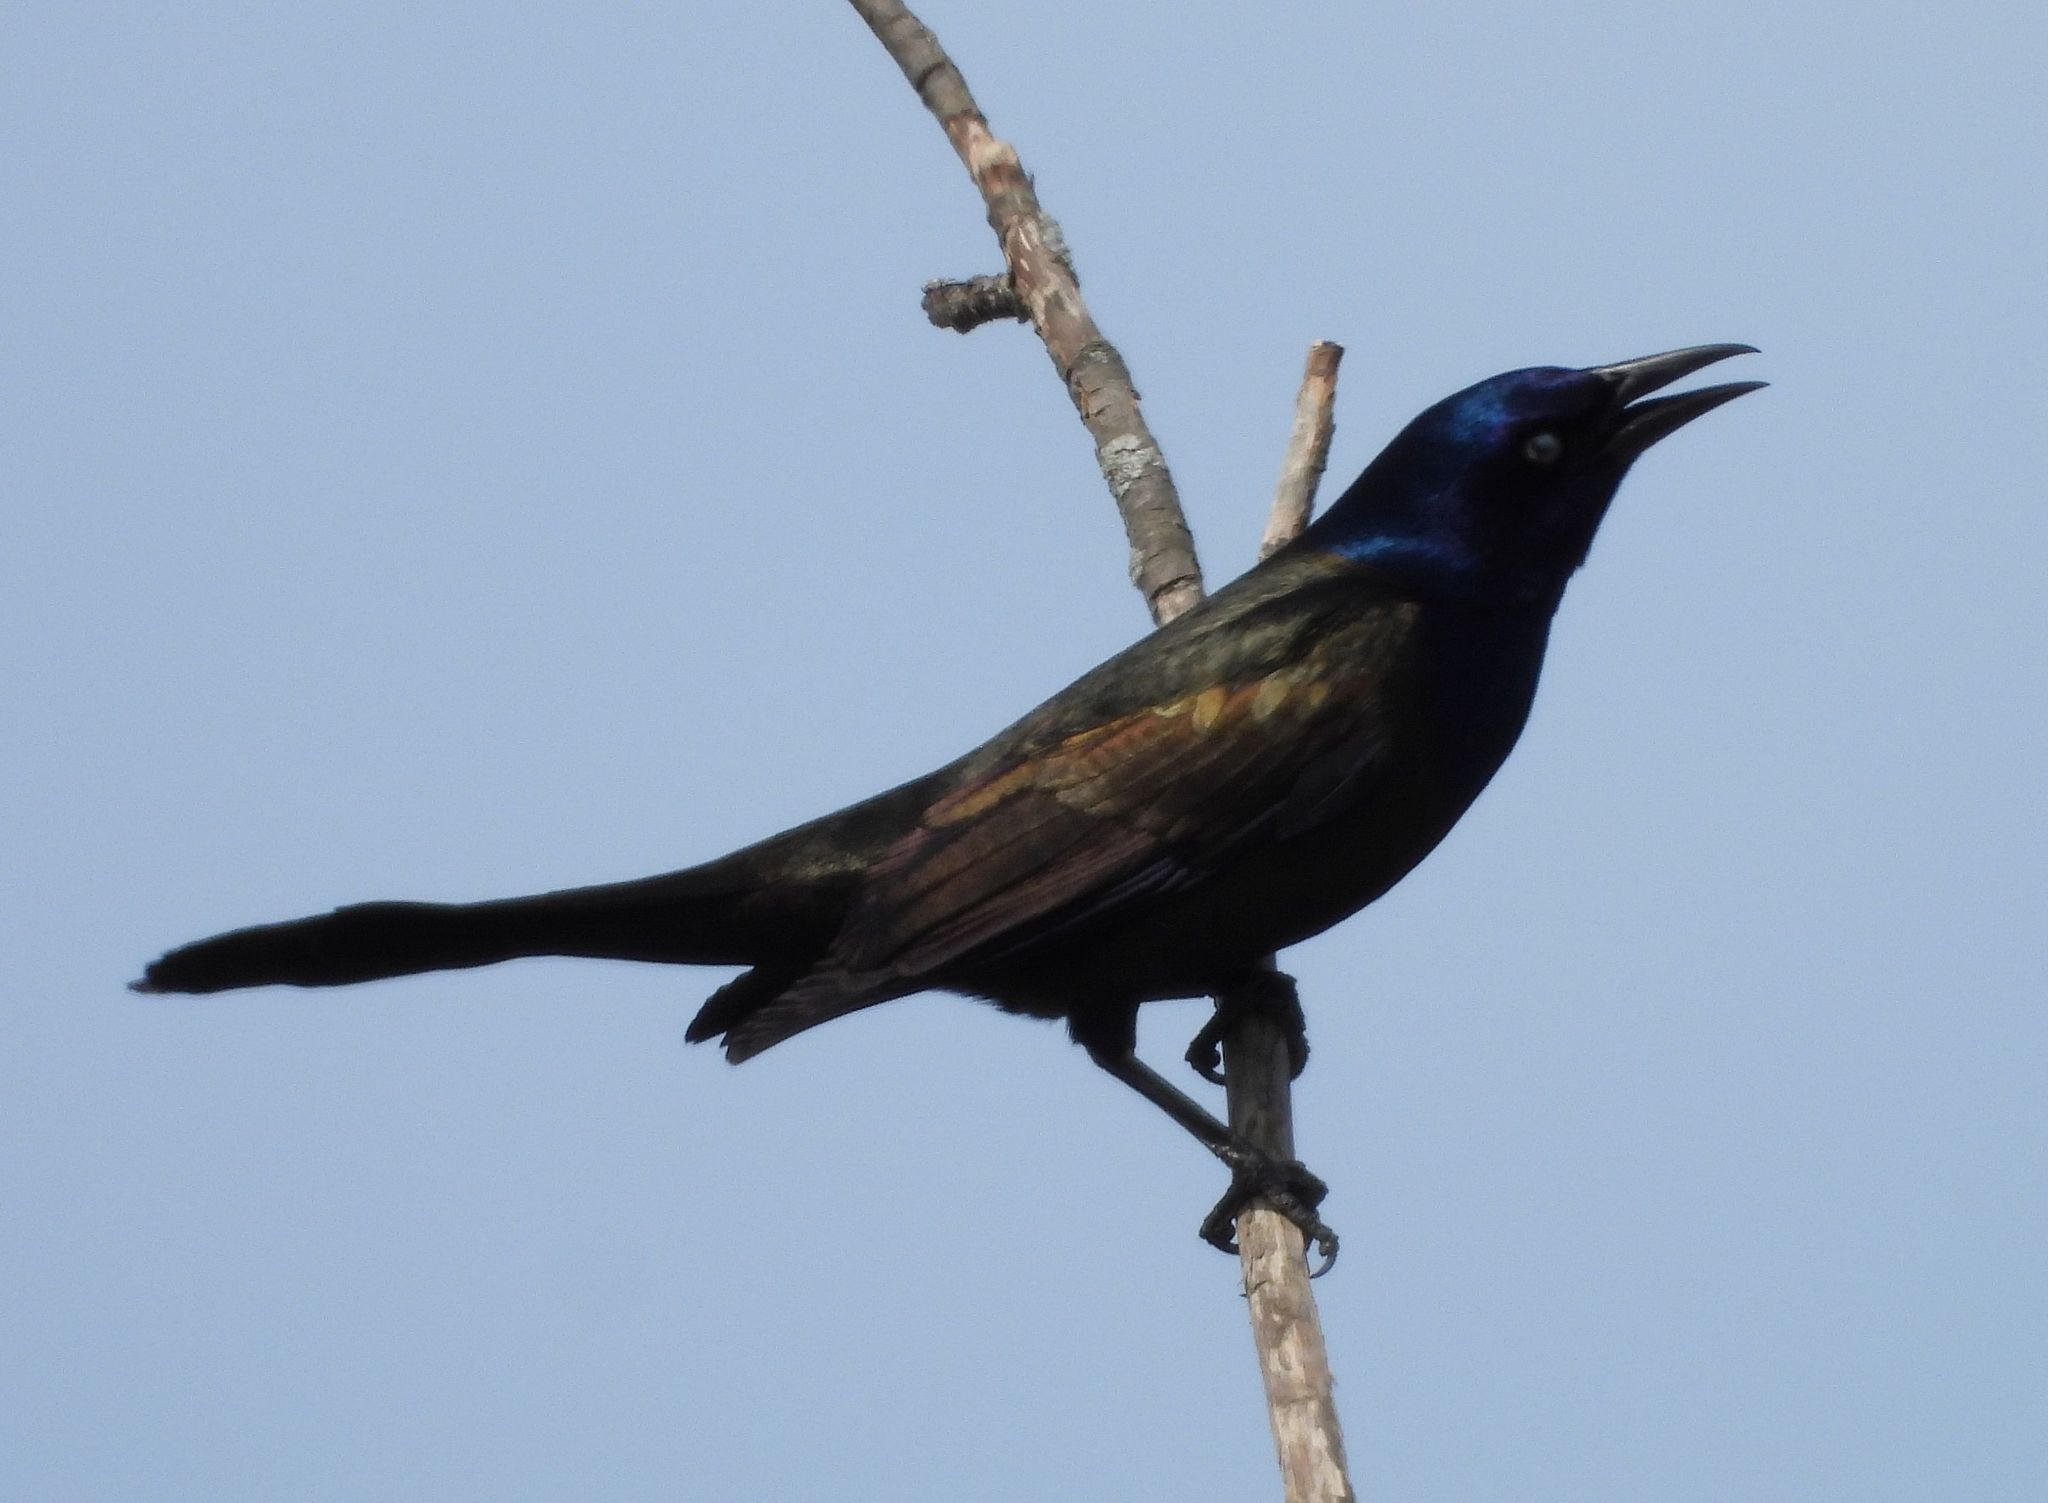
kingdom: Animalia
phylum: Chordata
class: Aves
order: Passeriformes
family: Icteridae
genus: Quiscalus
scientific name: Quiscalus quiscula
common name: Common grackle
